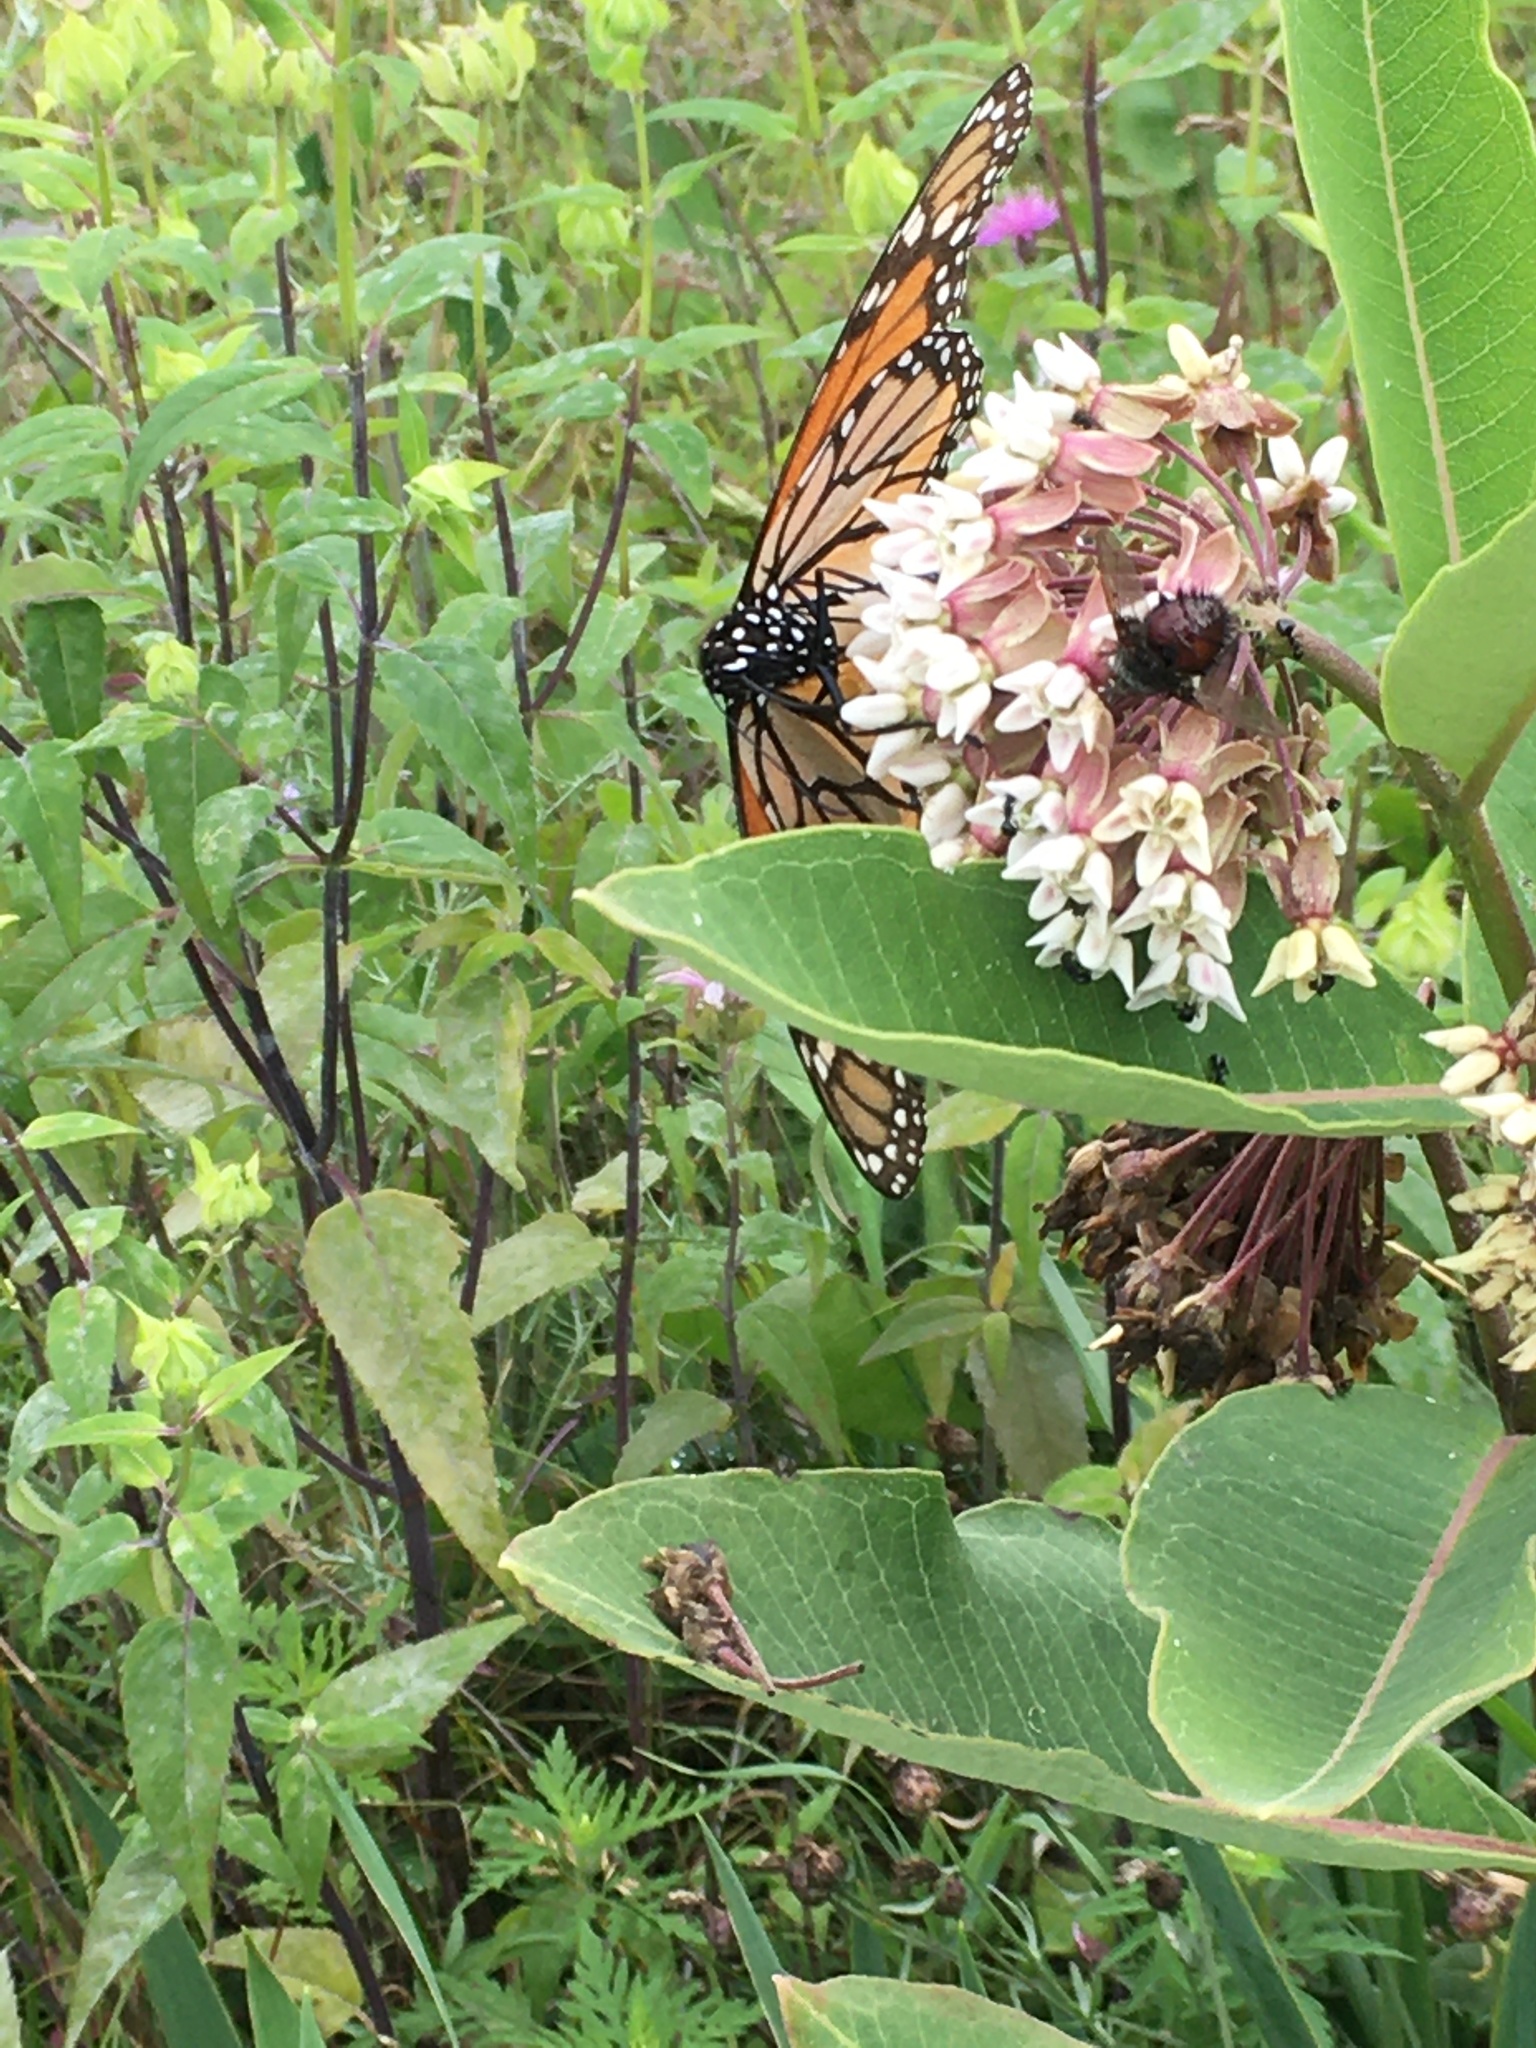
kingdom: Animalia
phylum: Arthropoda
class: Insecta
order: Lepidoptera
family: Nymphalidae
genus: Danaus
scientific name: Danaus plexippus
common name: Monarch
